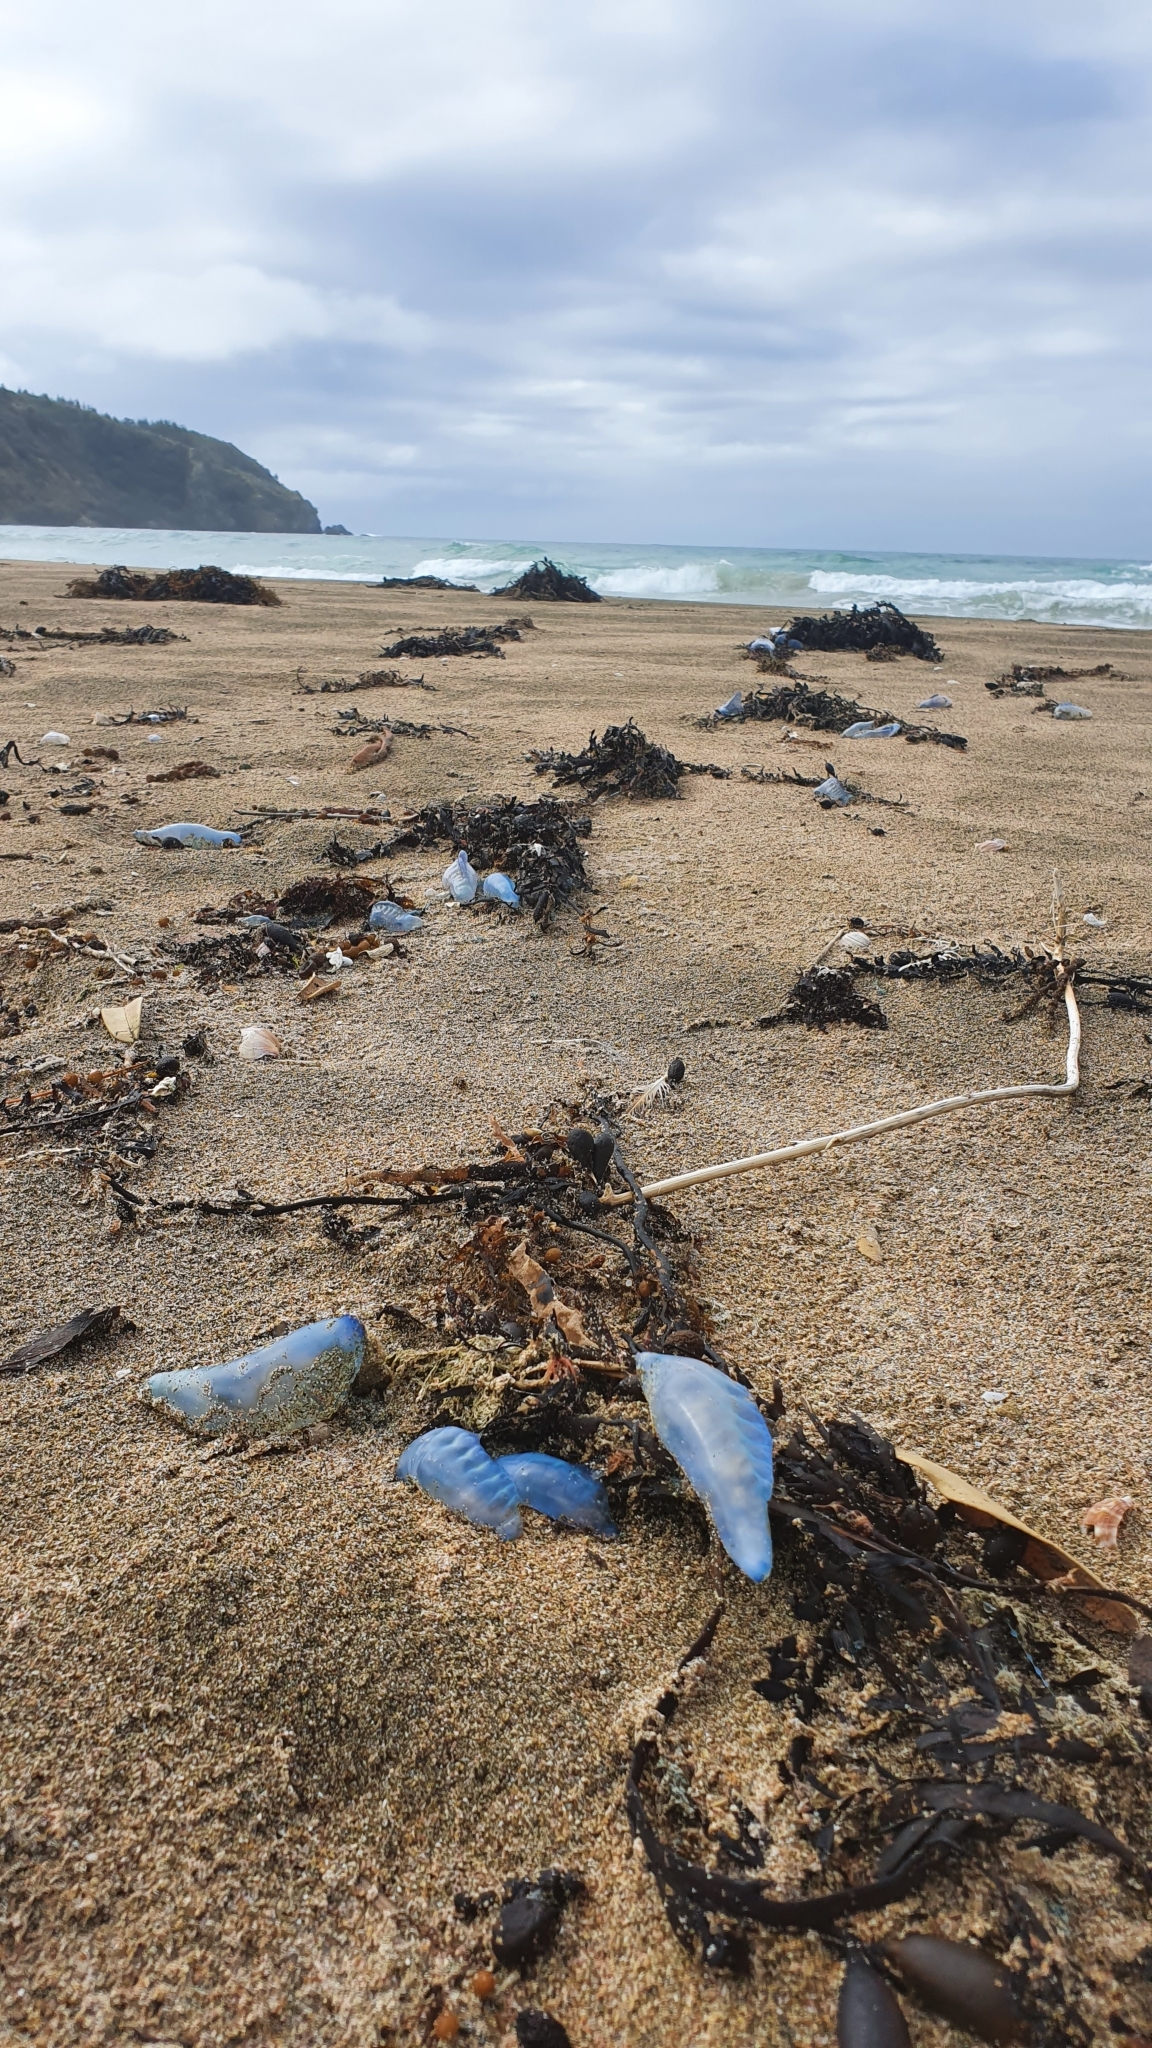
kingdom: Animalia
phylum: Cnidaria
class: Hydrozoa
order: Siphonophorae
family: Physaliidae
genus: Physalia
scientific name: Physalia physalis
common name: Portuguese man-of-war
